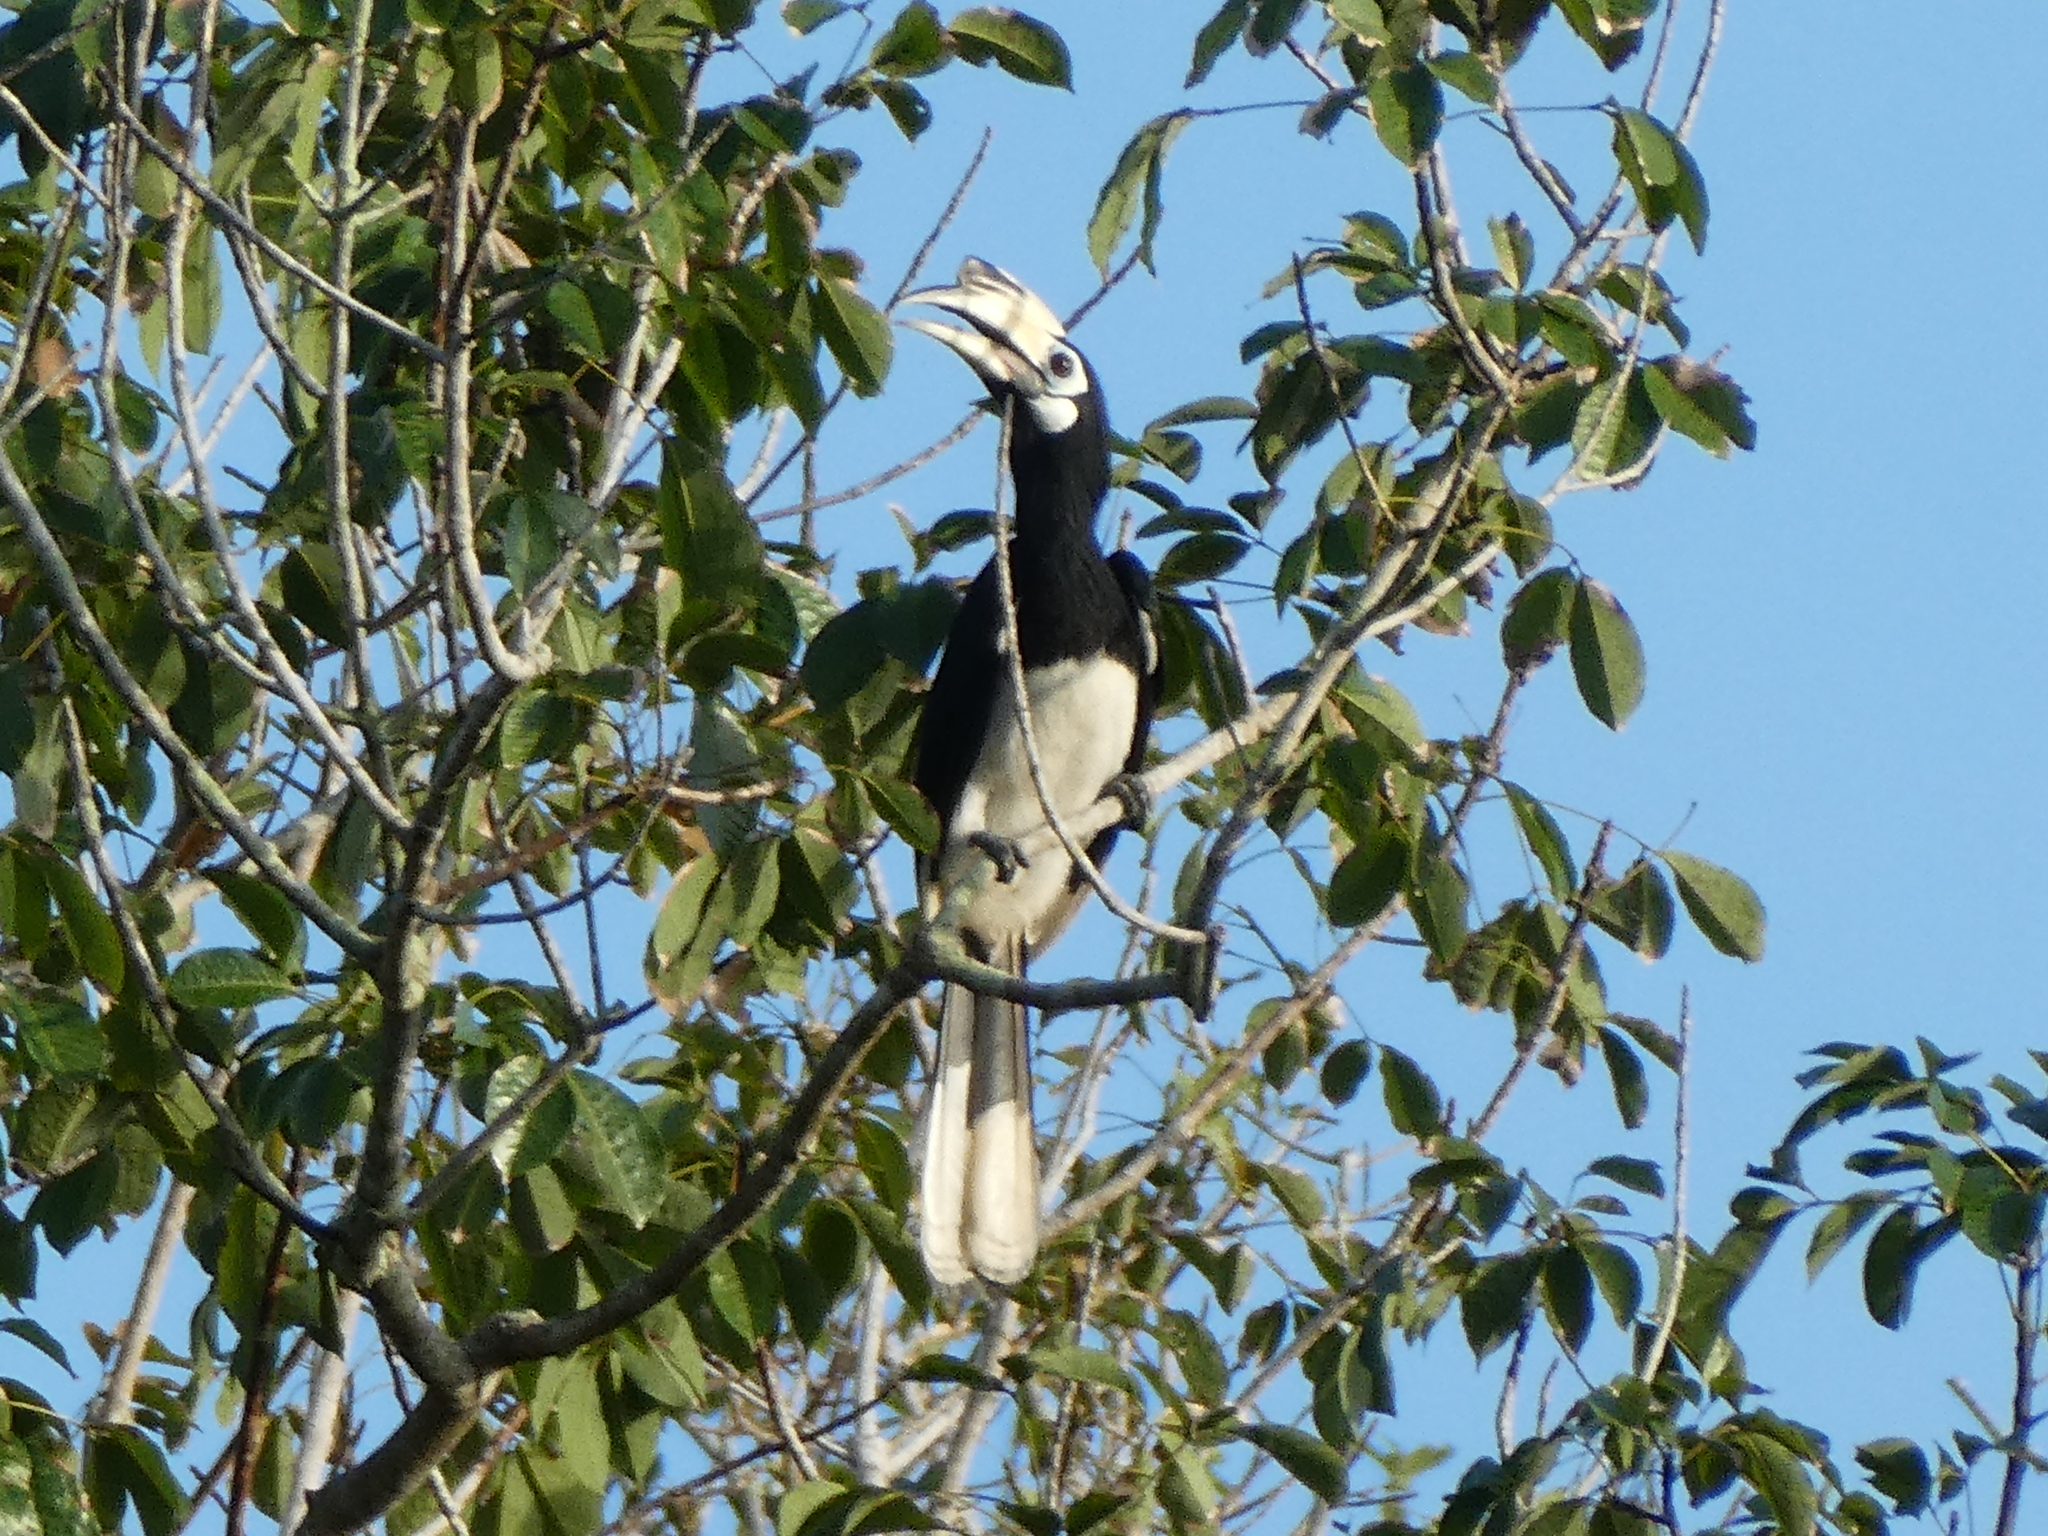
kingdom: Animalia
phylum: Chordata
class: Aves
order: Bucerotiformes
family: Bucerotidae
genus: Anthracoceros
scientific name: Anthracoceros albirostris
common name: Oriental pied-hornbill
